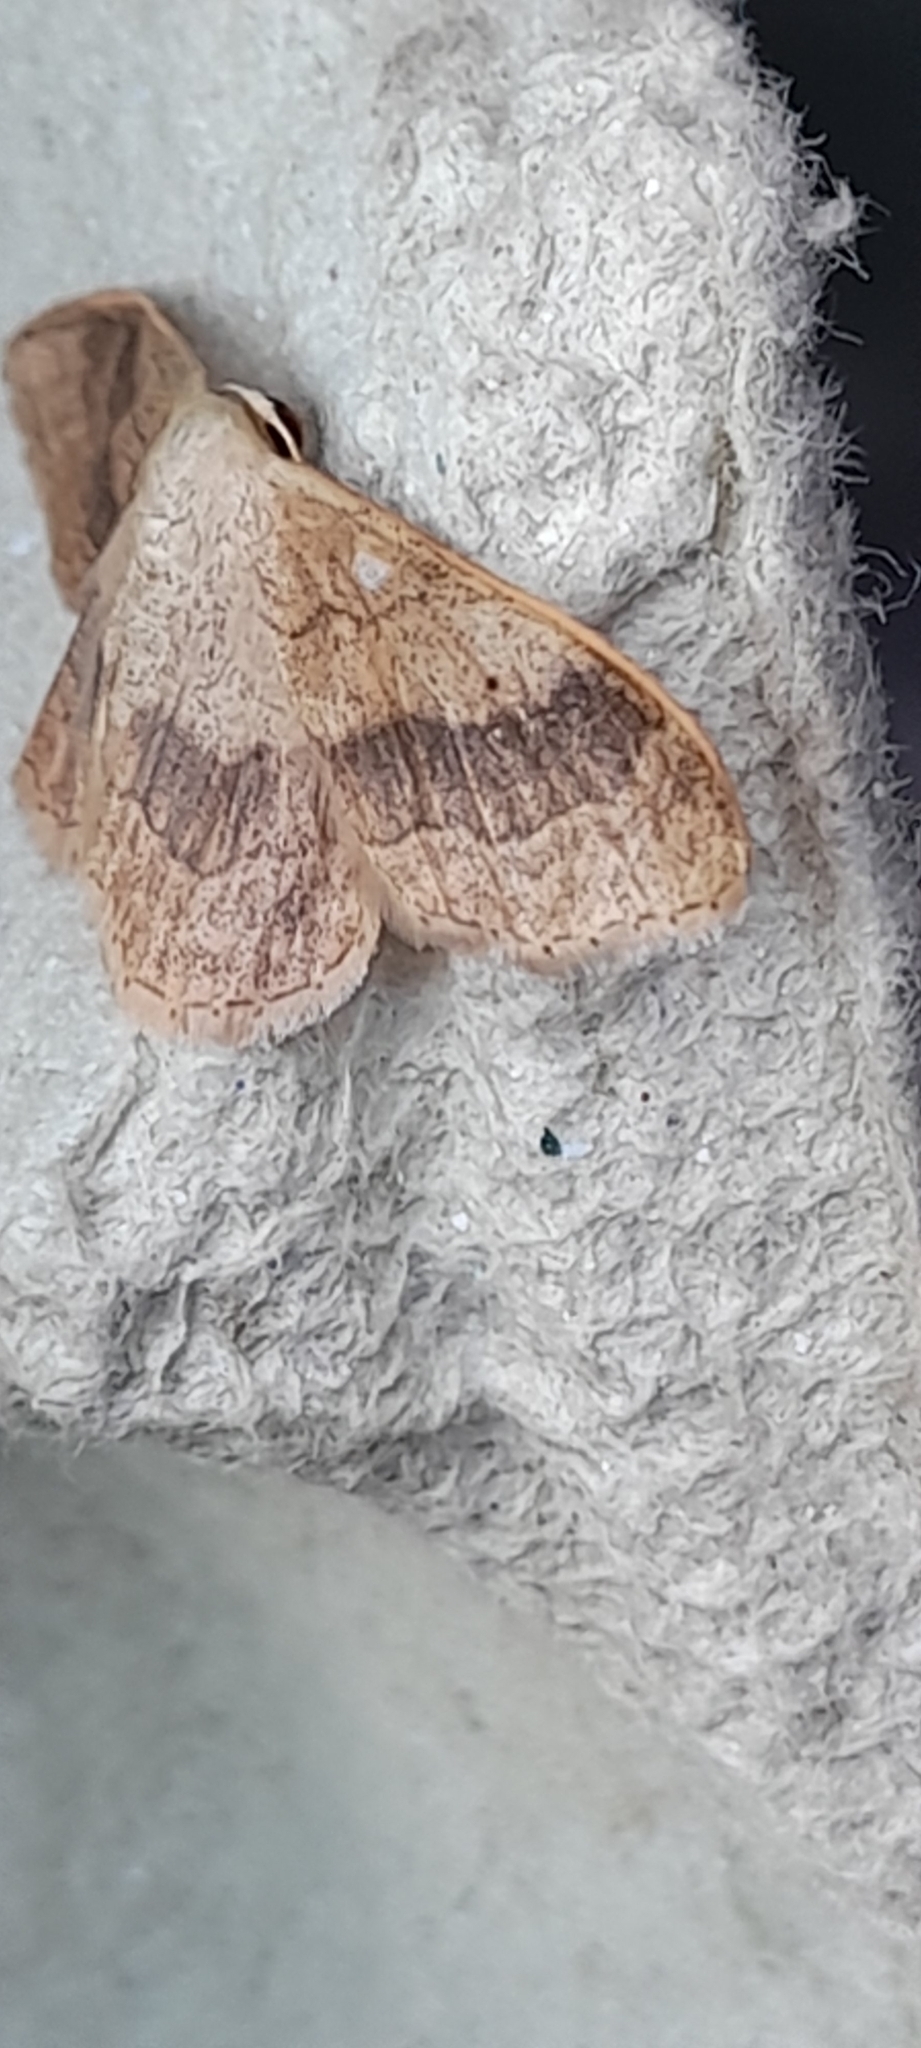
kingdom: Animalia
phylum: Arthropoda
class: Insecta
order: Lepidoptera
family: Geometridae
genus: Idaea
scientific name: Idaea aversata
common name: Riband wave
